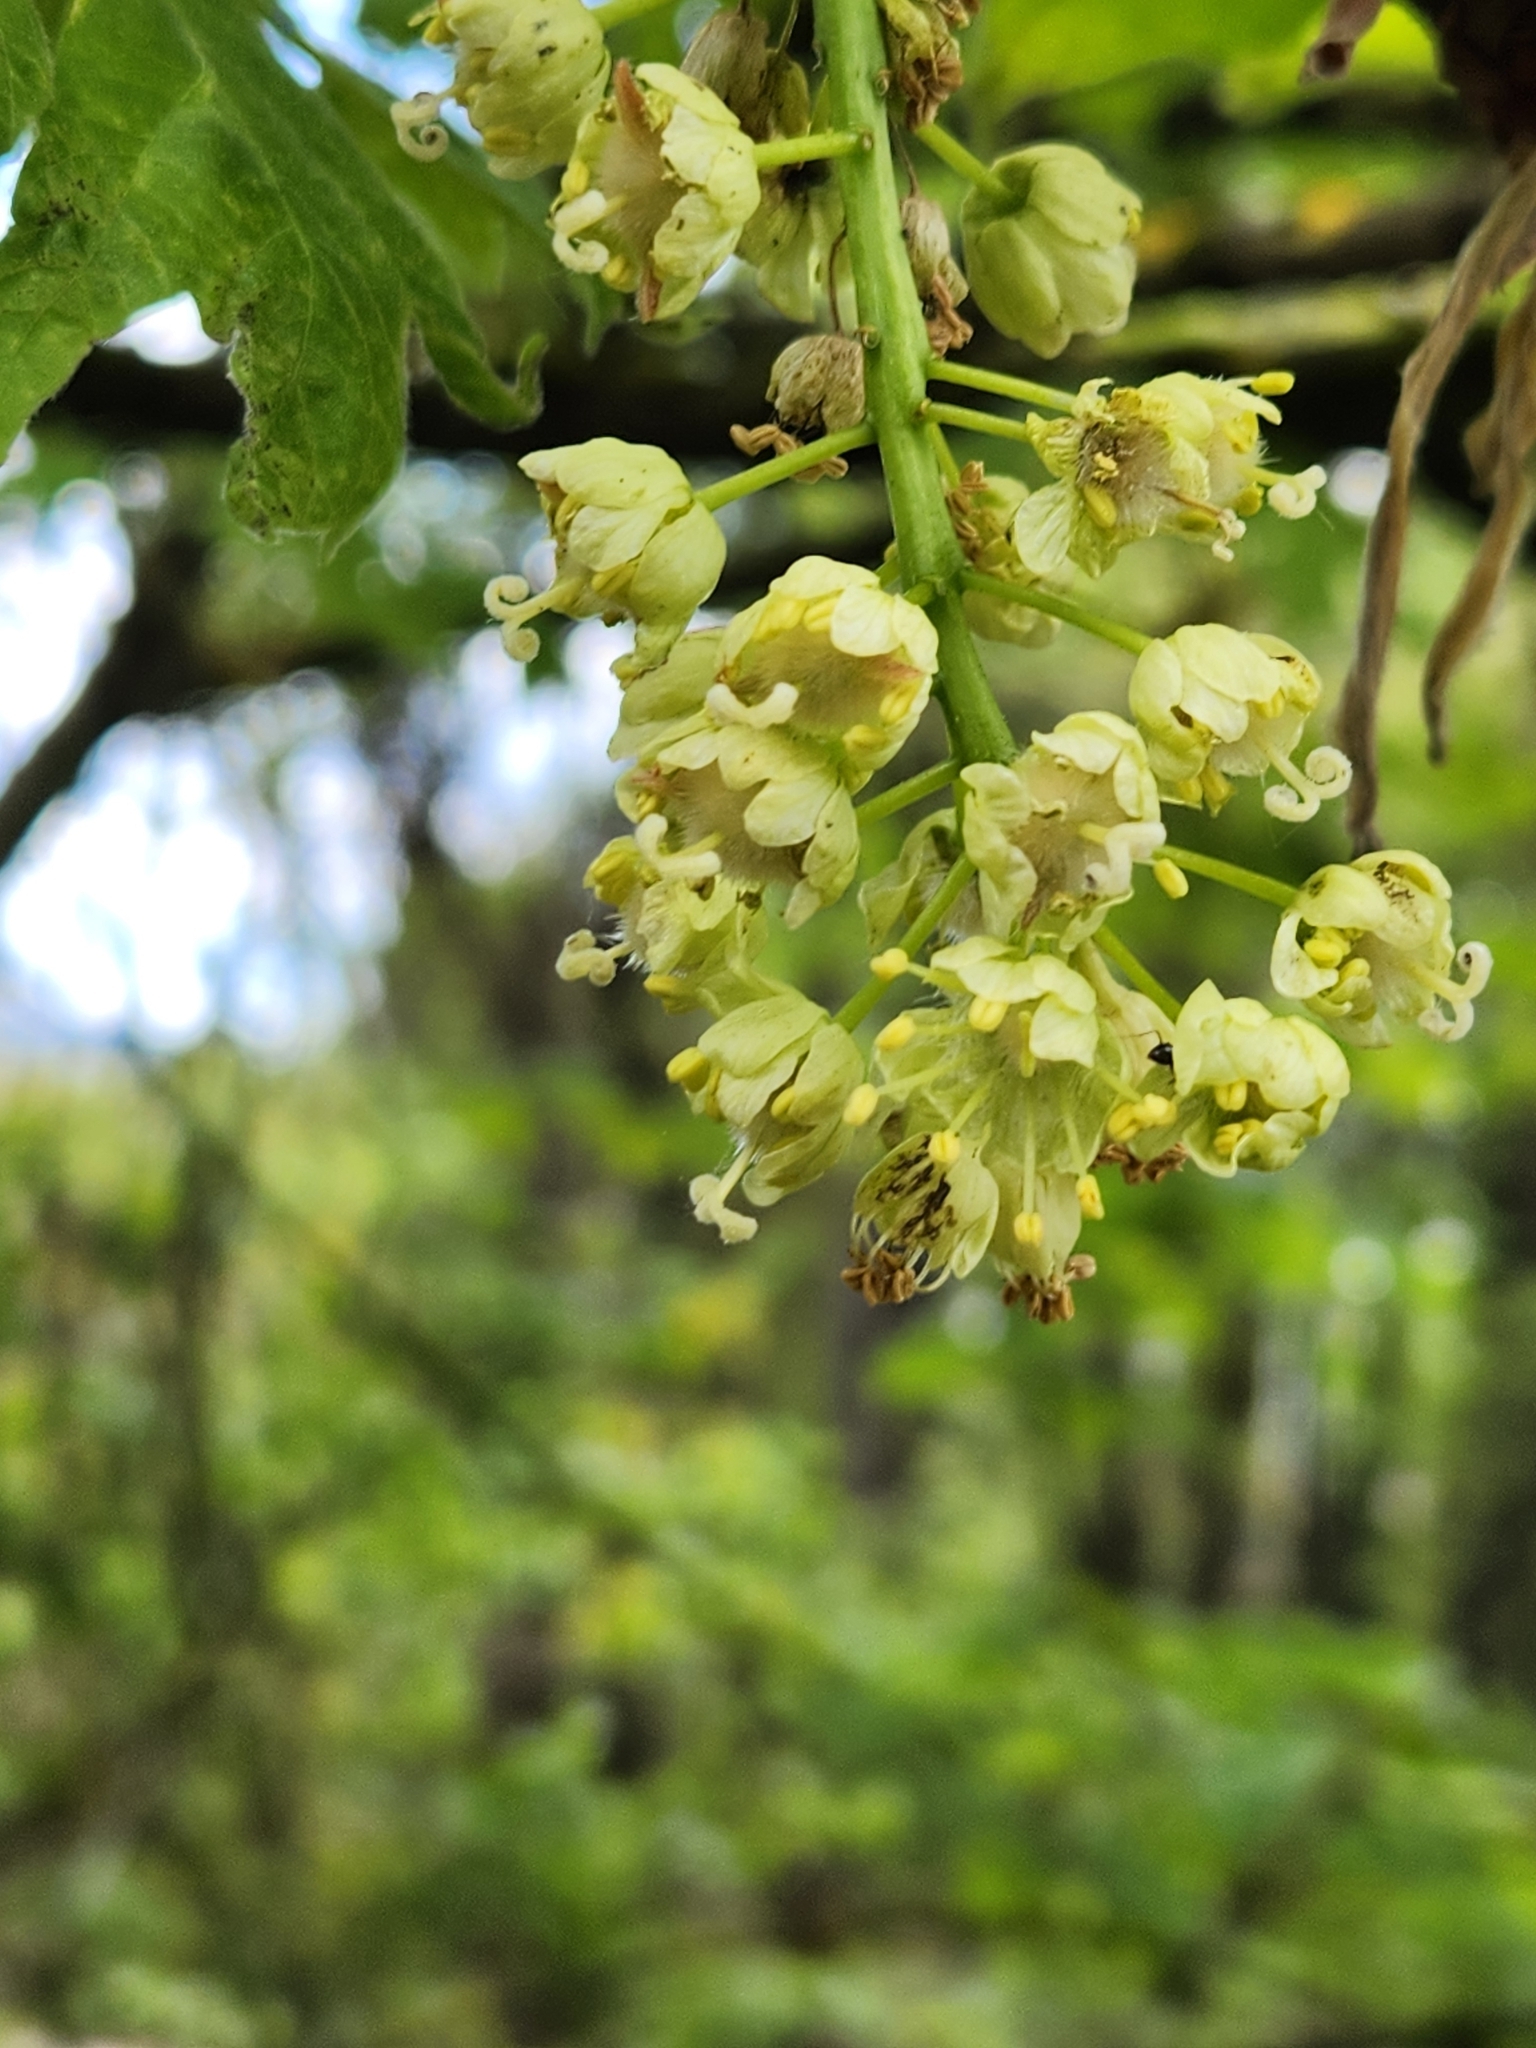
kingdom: Plantae
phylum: Tracheophyta
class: Magnoliopsida
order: Sapindales
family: Sapindaceae
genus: Acer
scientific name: Acer macrophyllum
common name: Oregon maple
